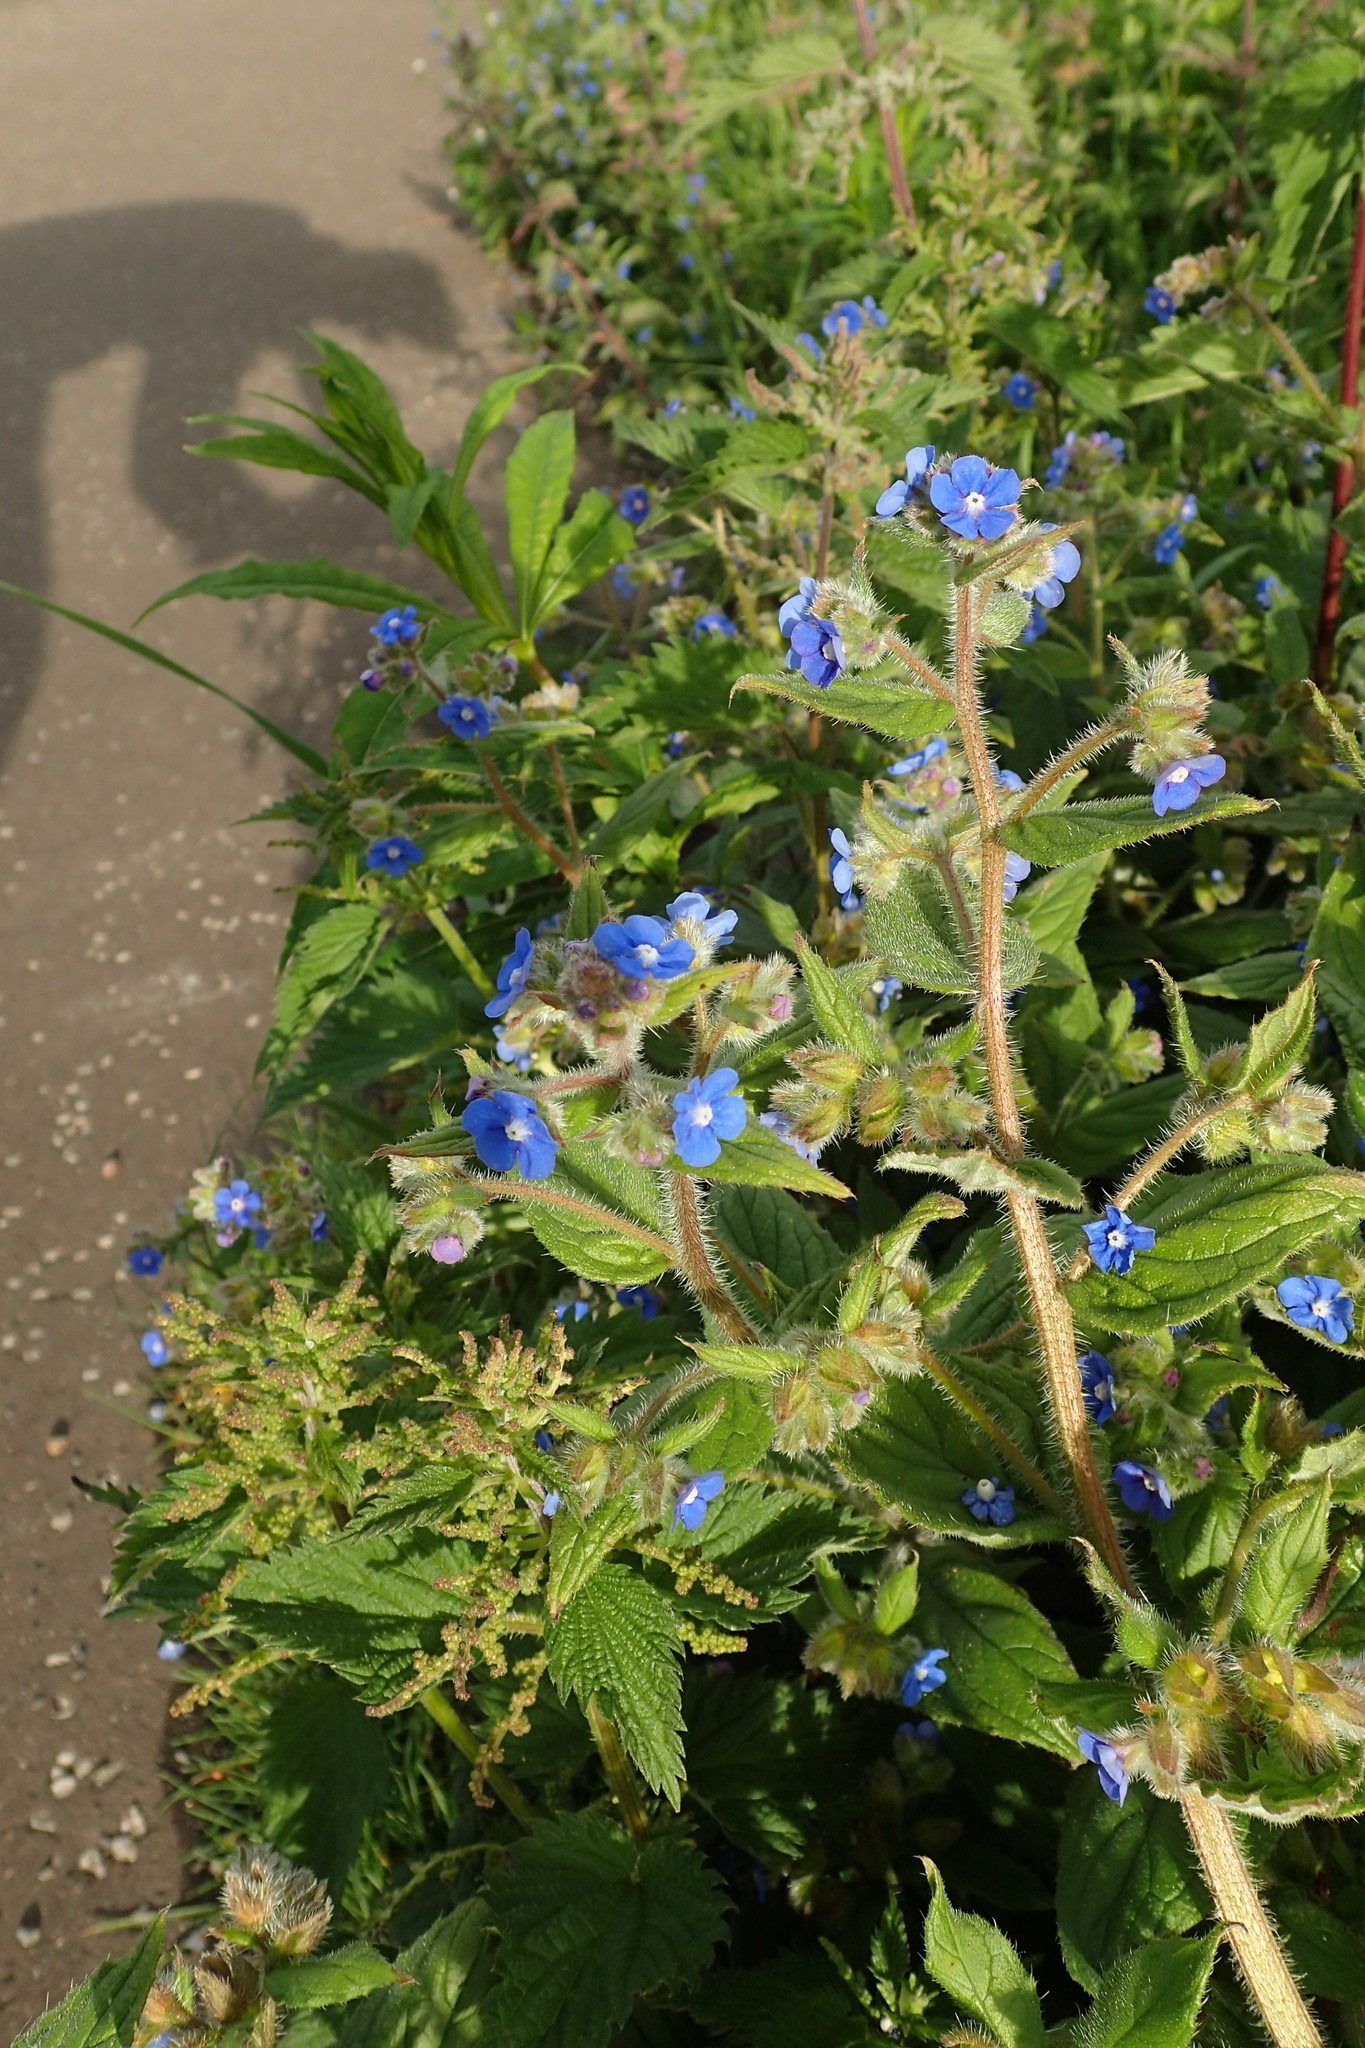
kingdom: Plantae
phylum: Tracheophyta
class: Magnoliopsida
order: Boraginales
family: Boraginaceae
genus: Pentaglottis
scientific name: Pentaglottis sempervirens
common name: Green alkanet
